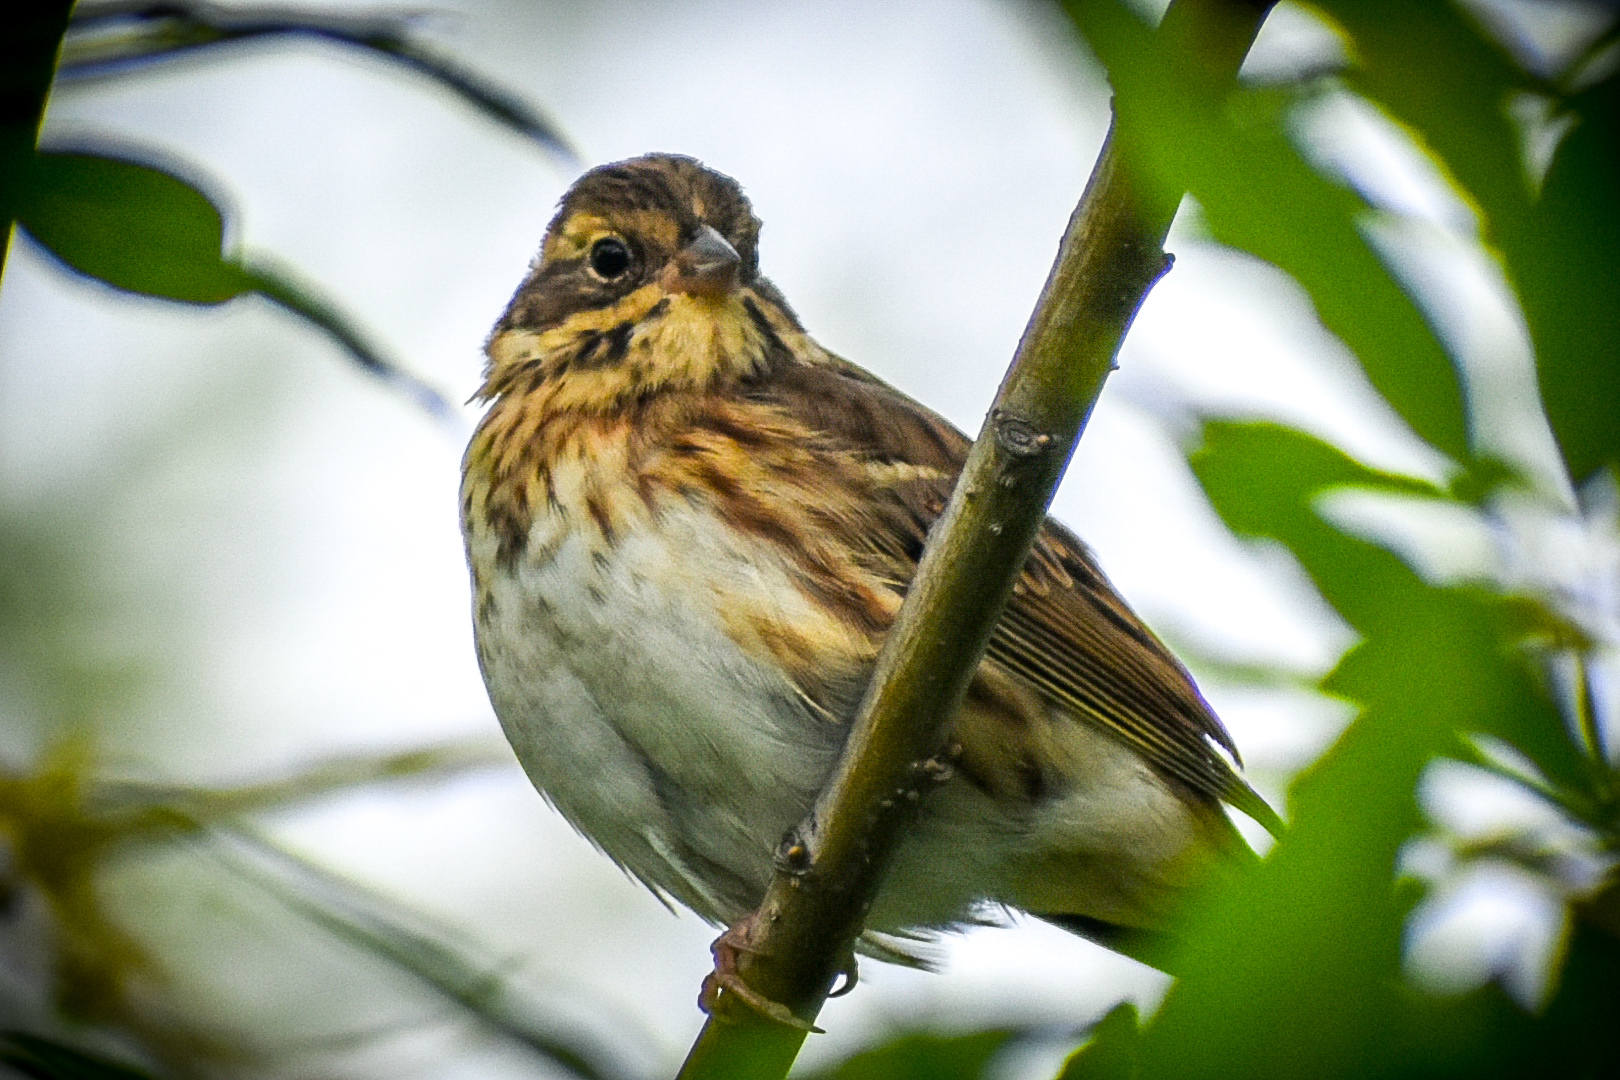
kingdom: Animalia
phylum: Chordata
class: Aves
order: Passeriformes
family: Emberizidae
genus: Emberiza
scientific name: Emberiza rustica
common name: Rustic bunting
